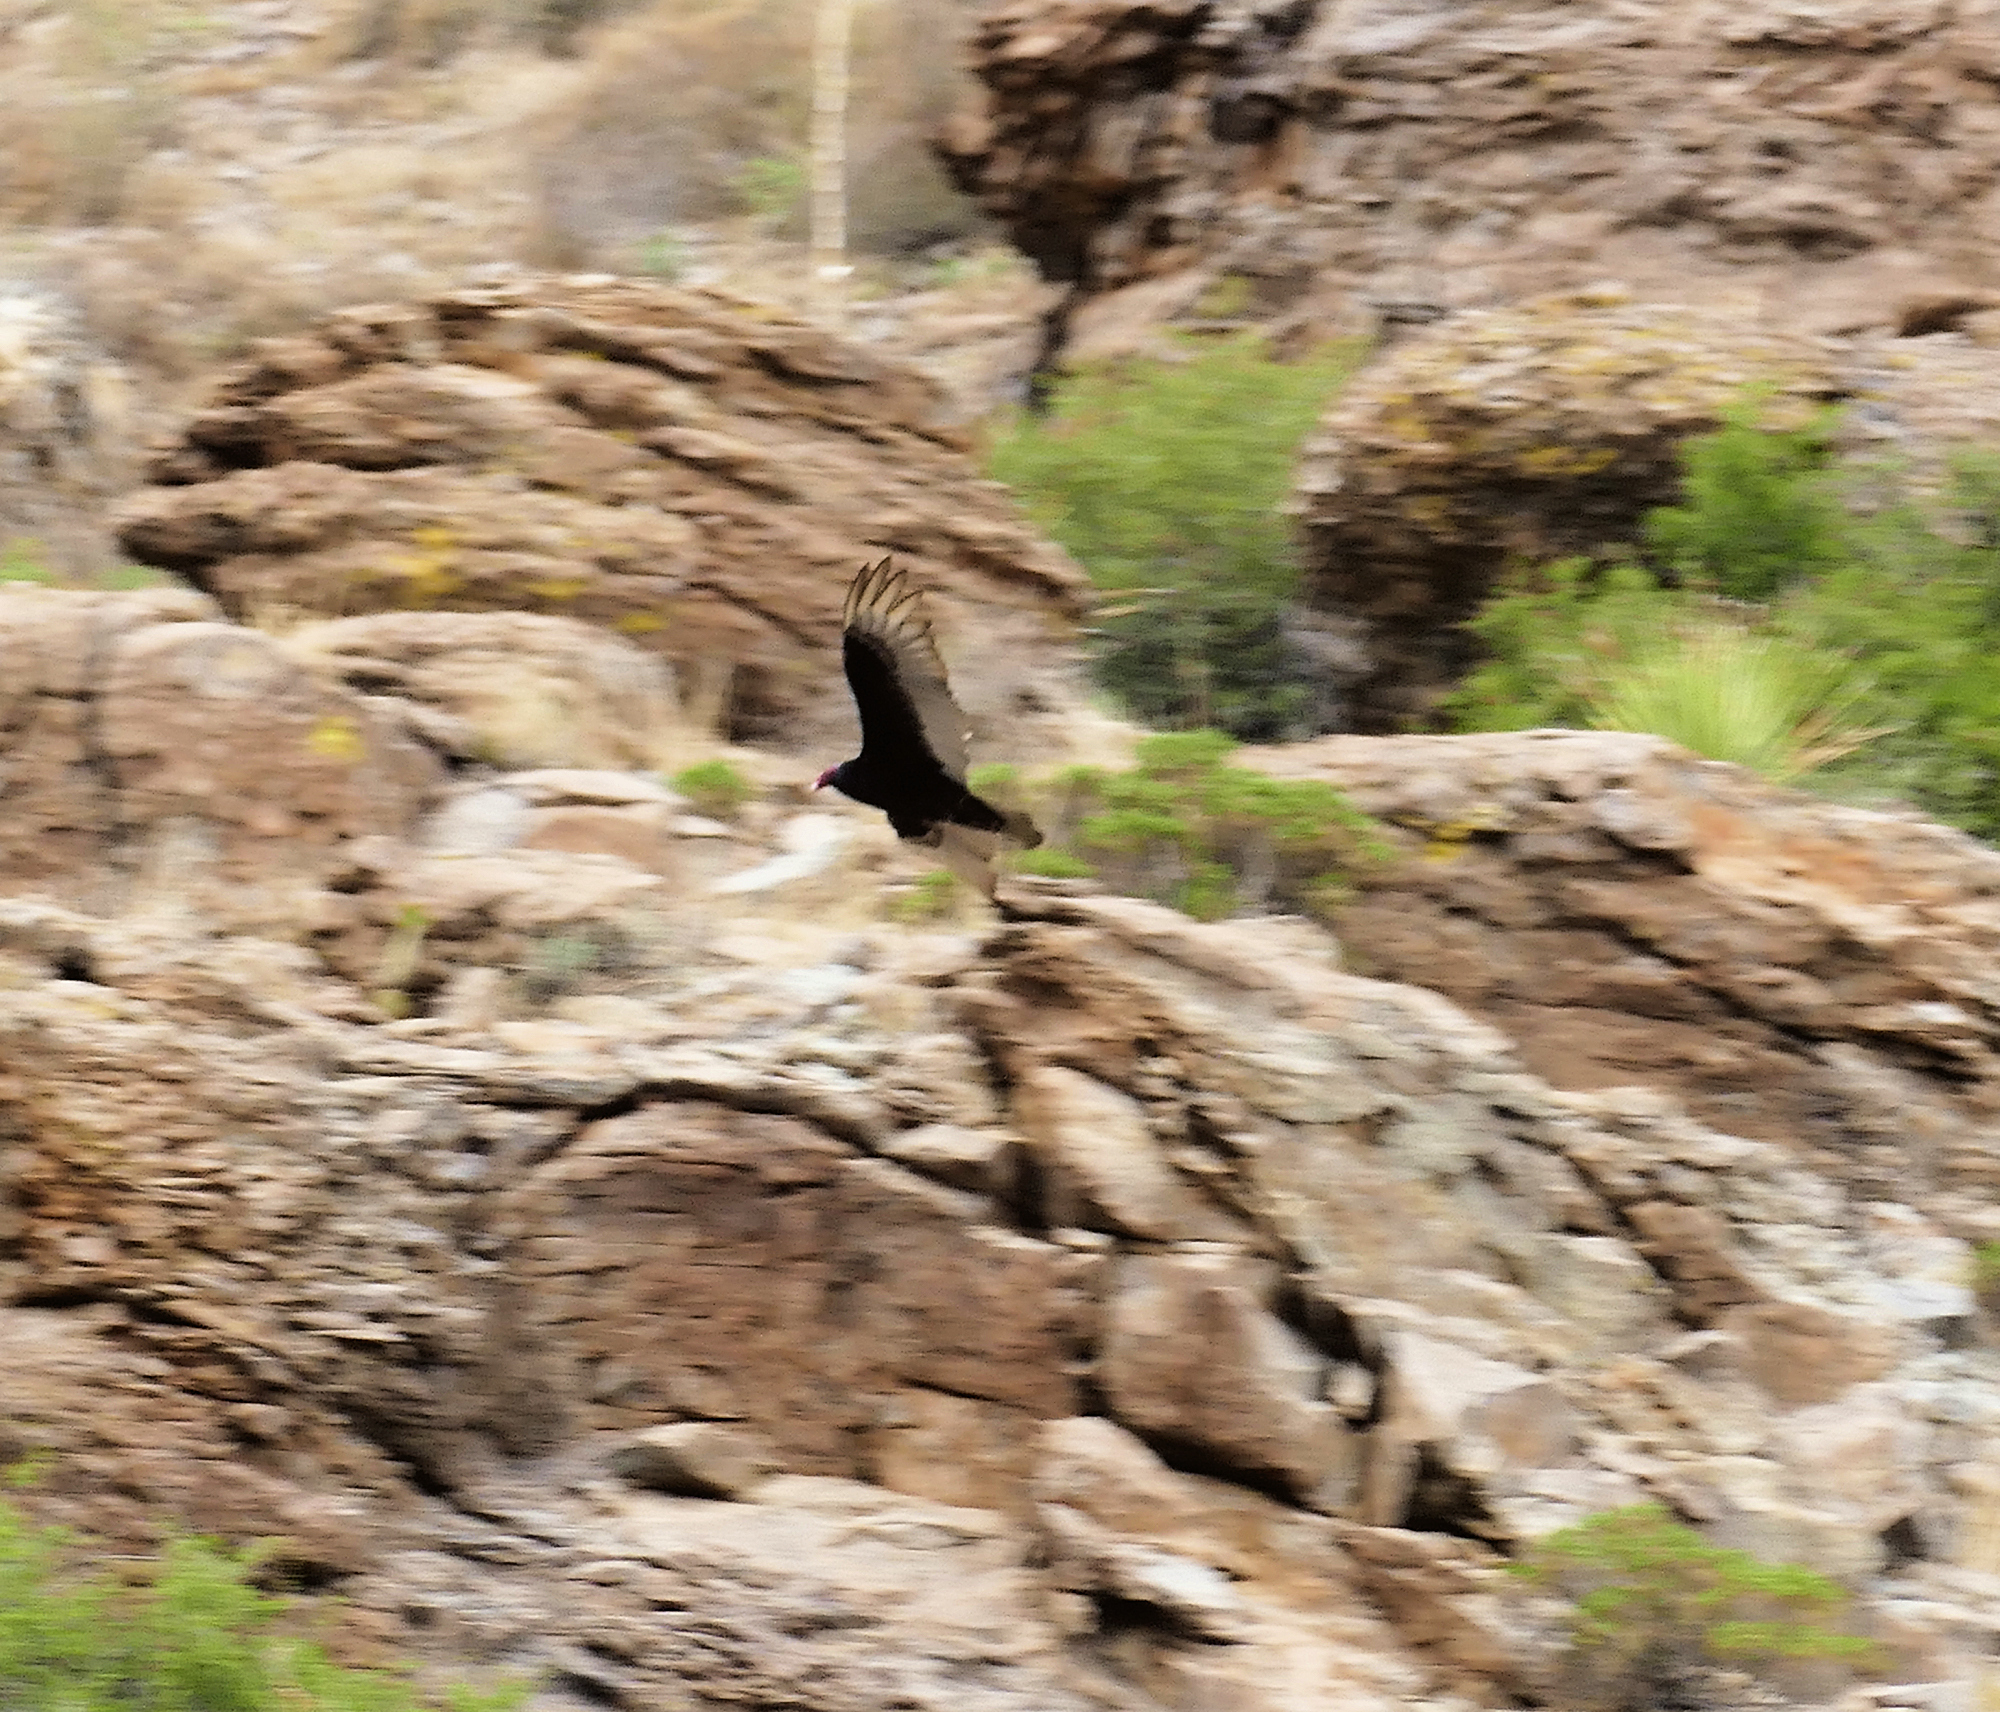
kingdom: Animalia
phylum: Chordata
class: Aves
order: Accipitriformes
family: Cathartidae
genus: Cathartes
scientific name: Cathartes aura
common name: Turkey vulture
